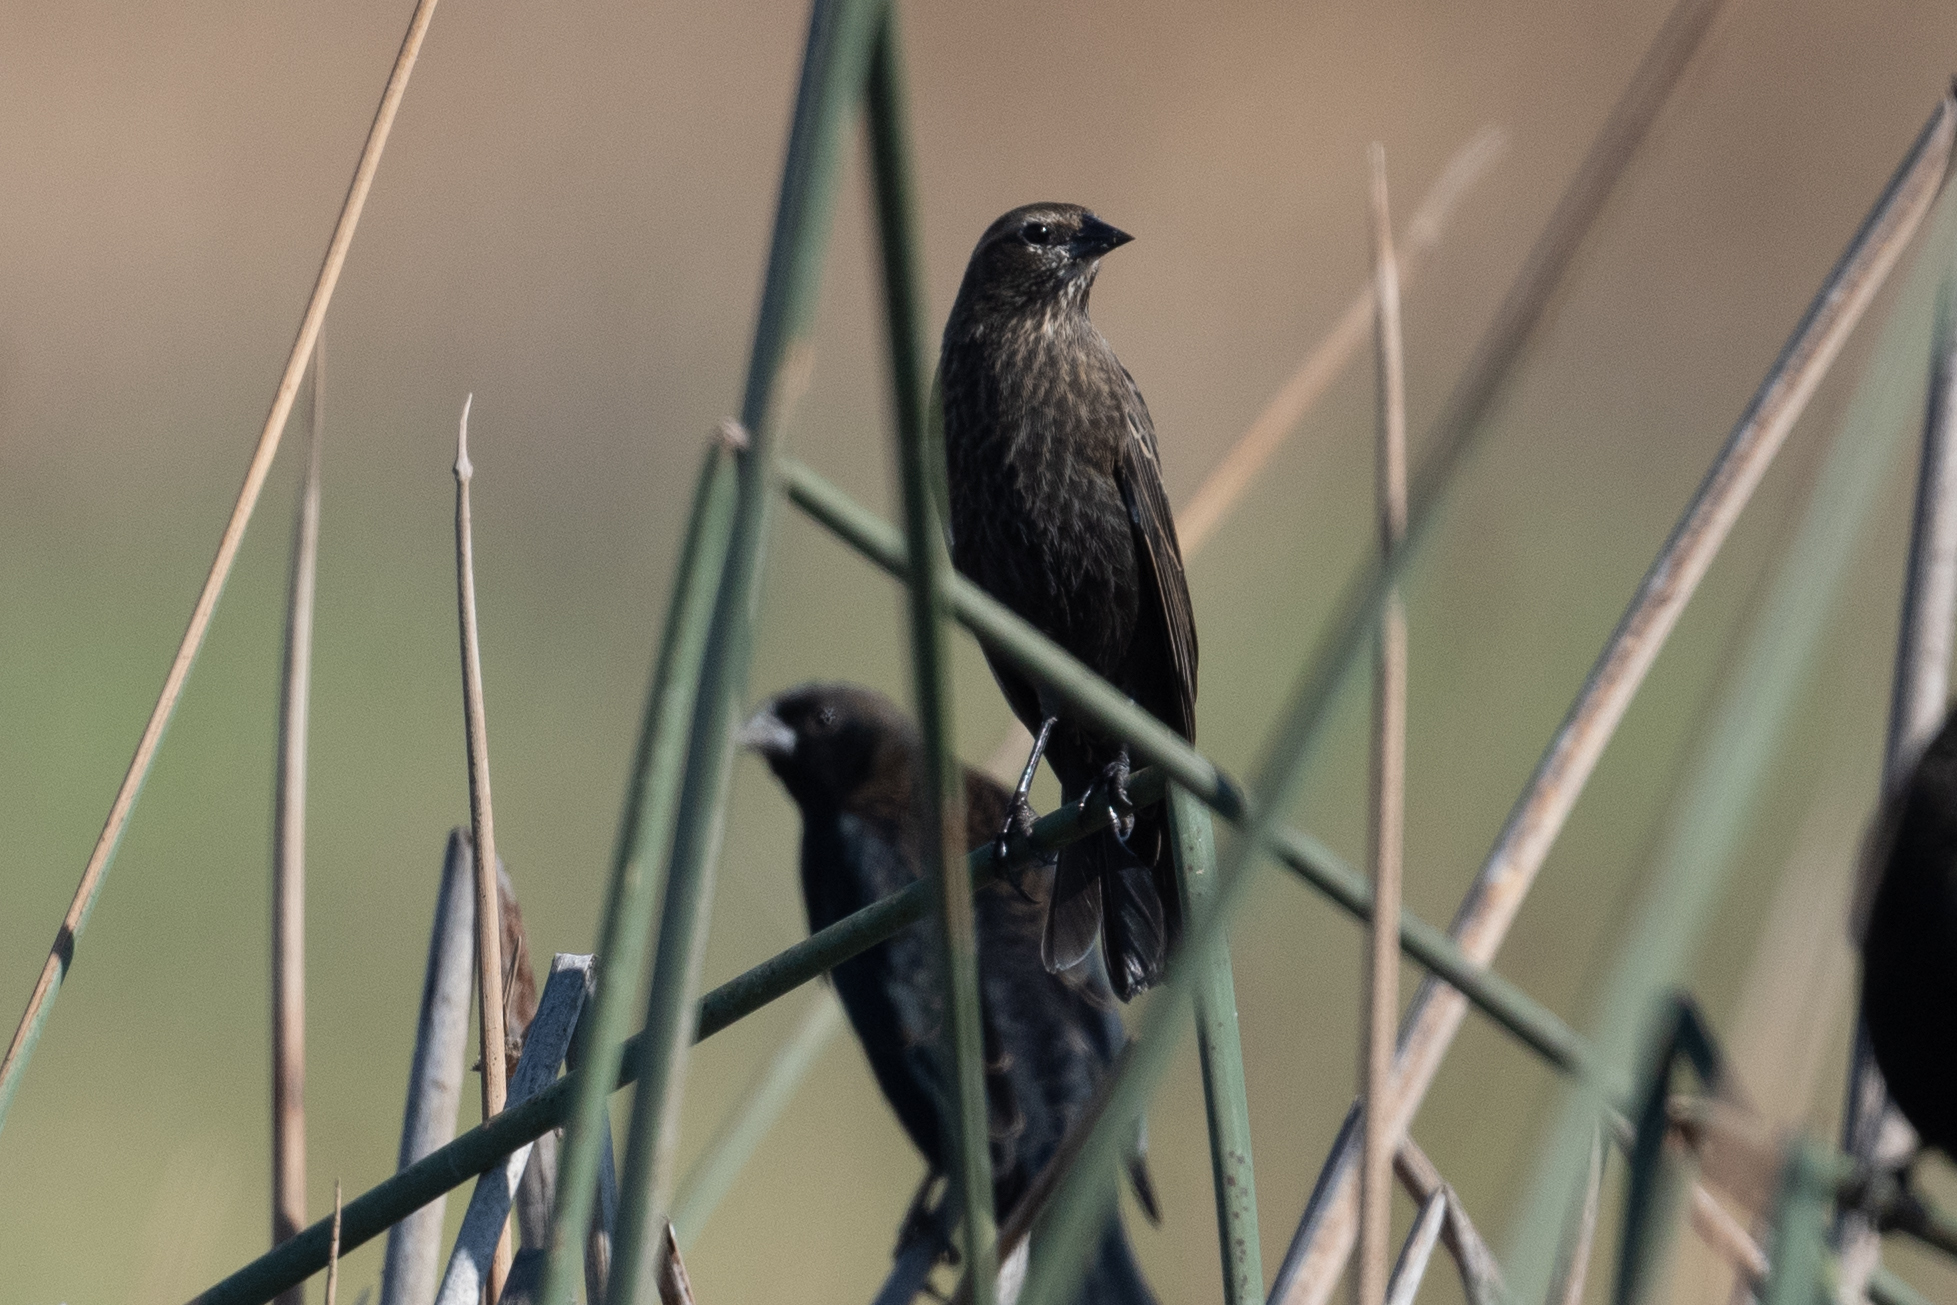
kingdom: Animalia
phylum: Chordata
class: Aves
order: Passeriformes
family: Icteridae
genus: Agelaius
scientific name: Agelaius phoeniceus
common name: Red-winged blackbird
